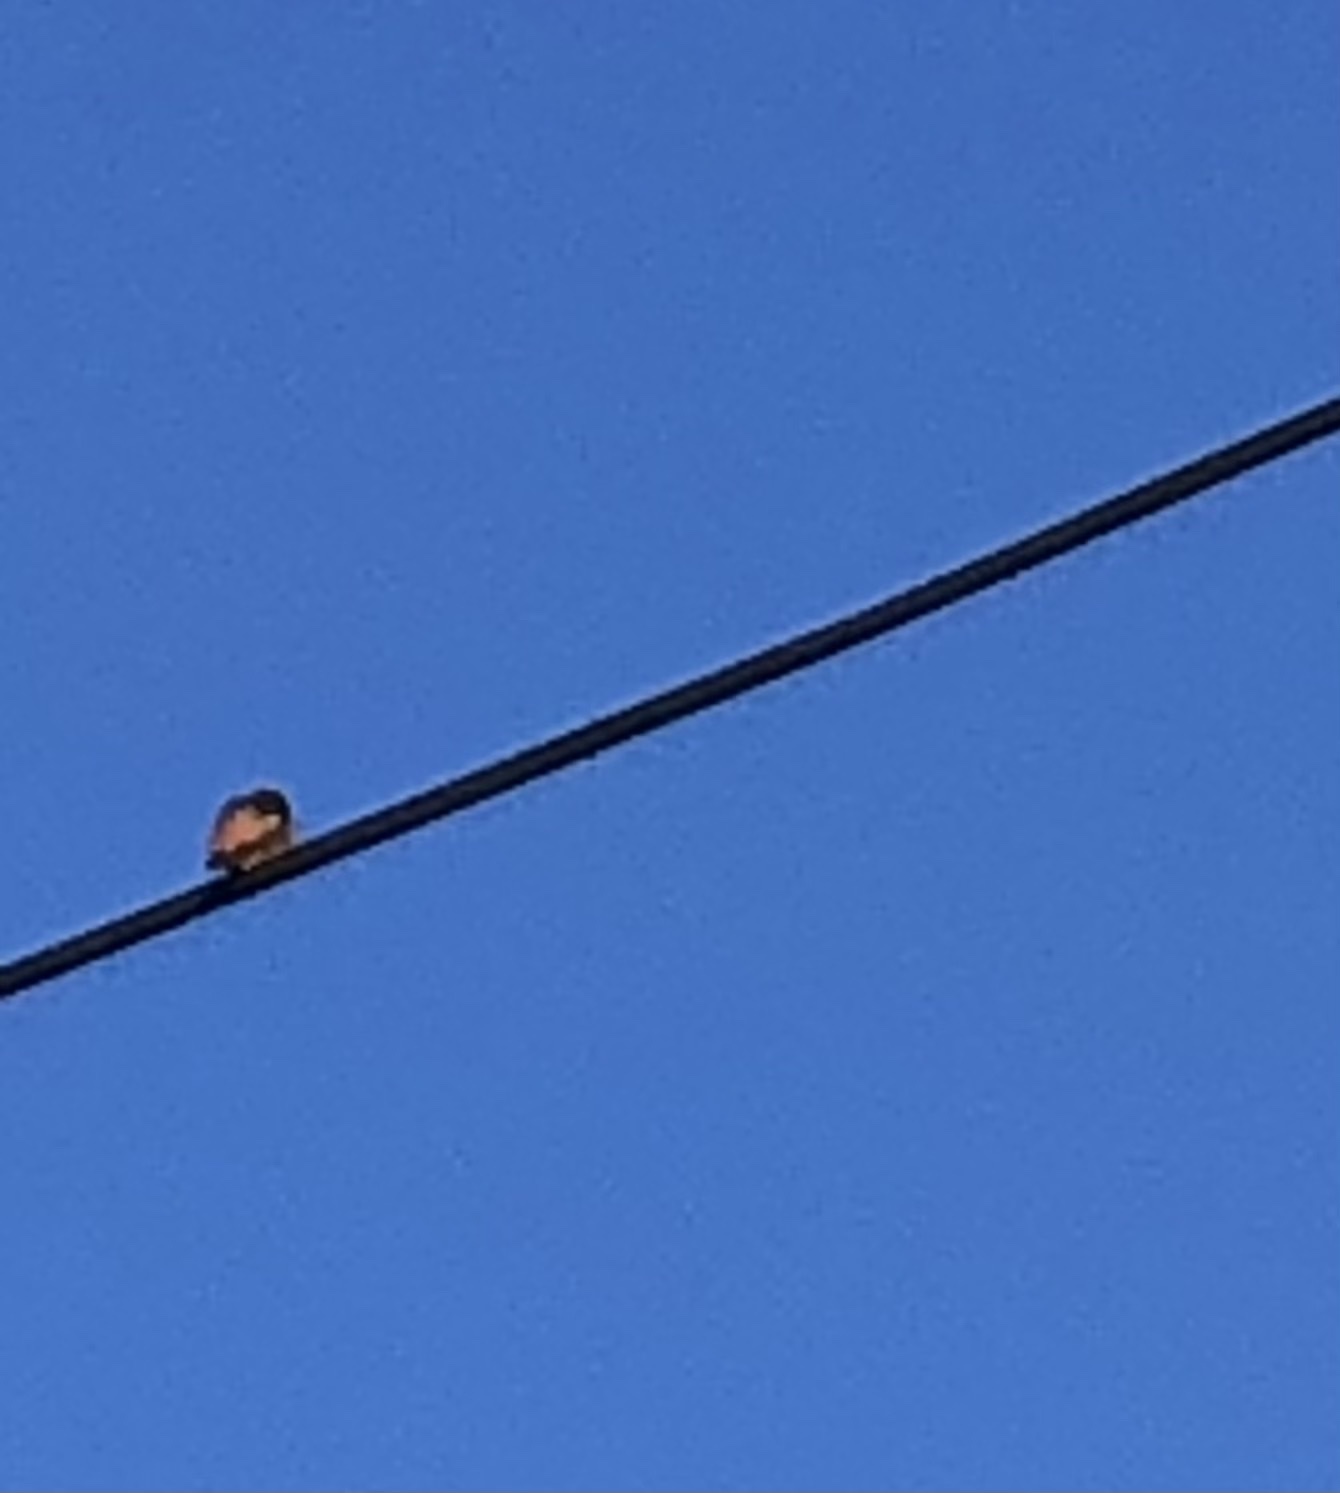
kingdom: Animalia
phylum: Chordata
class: Aves
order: Apodiformes
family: Trochilidae
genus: Selasphorus
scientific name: Selasphorus sasin
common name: Allen's hummingbird
